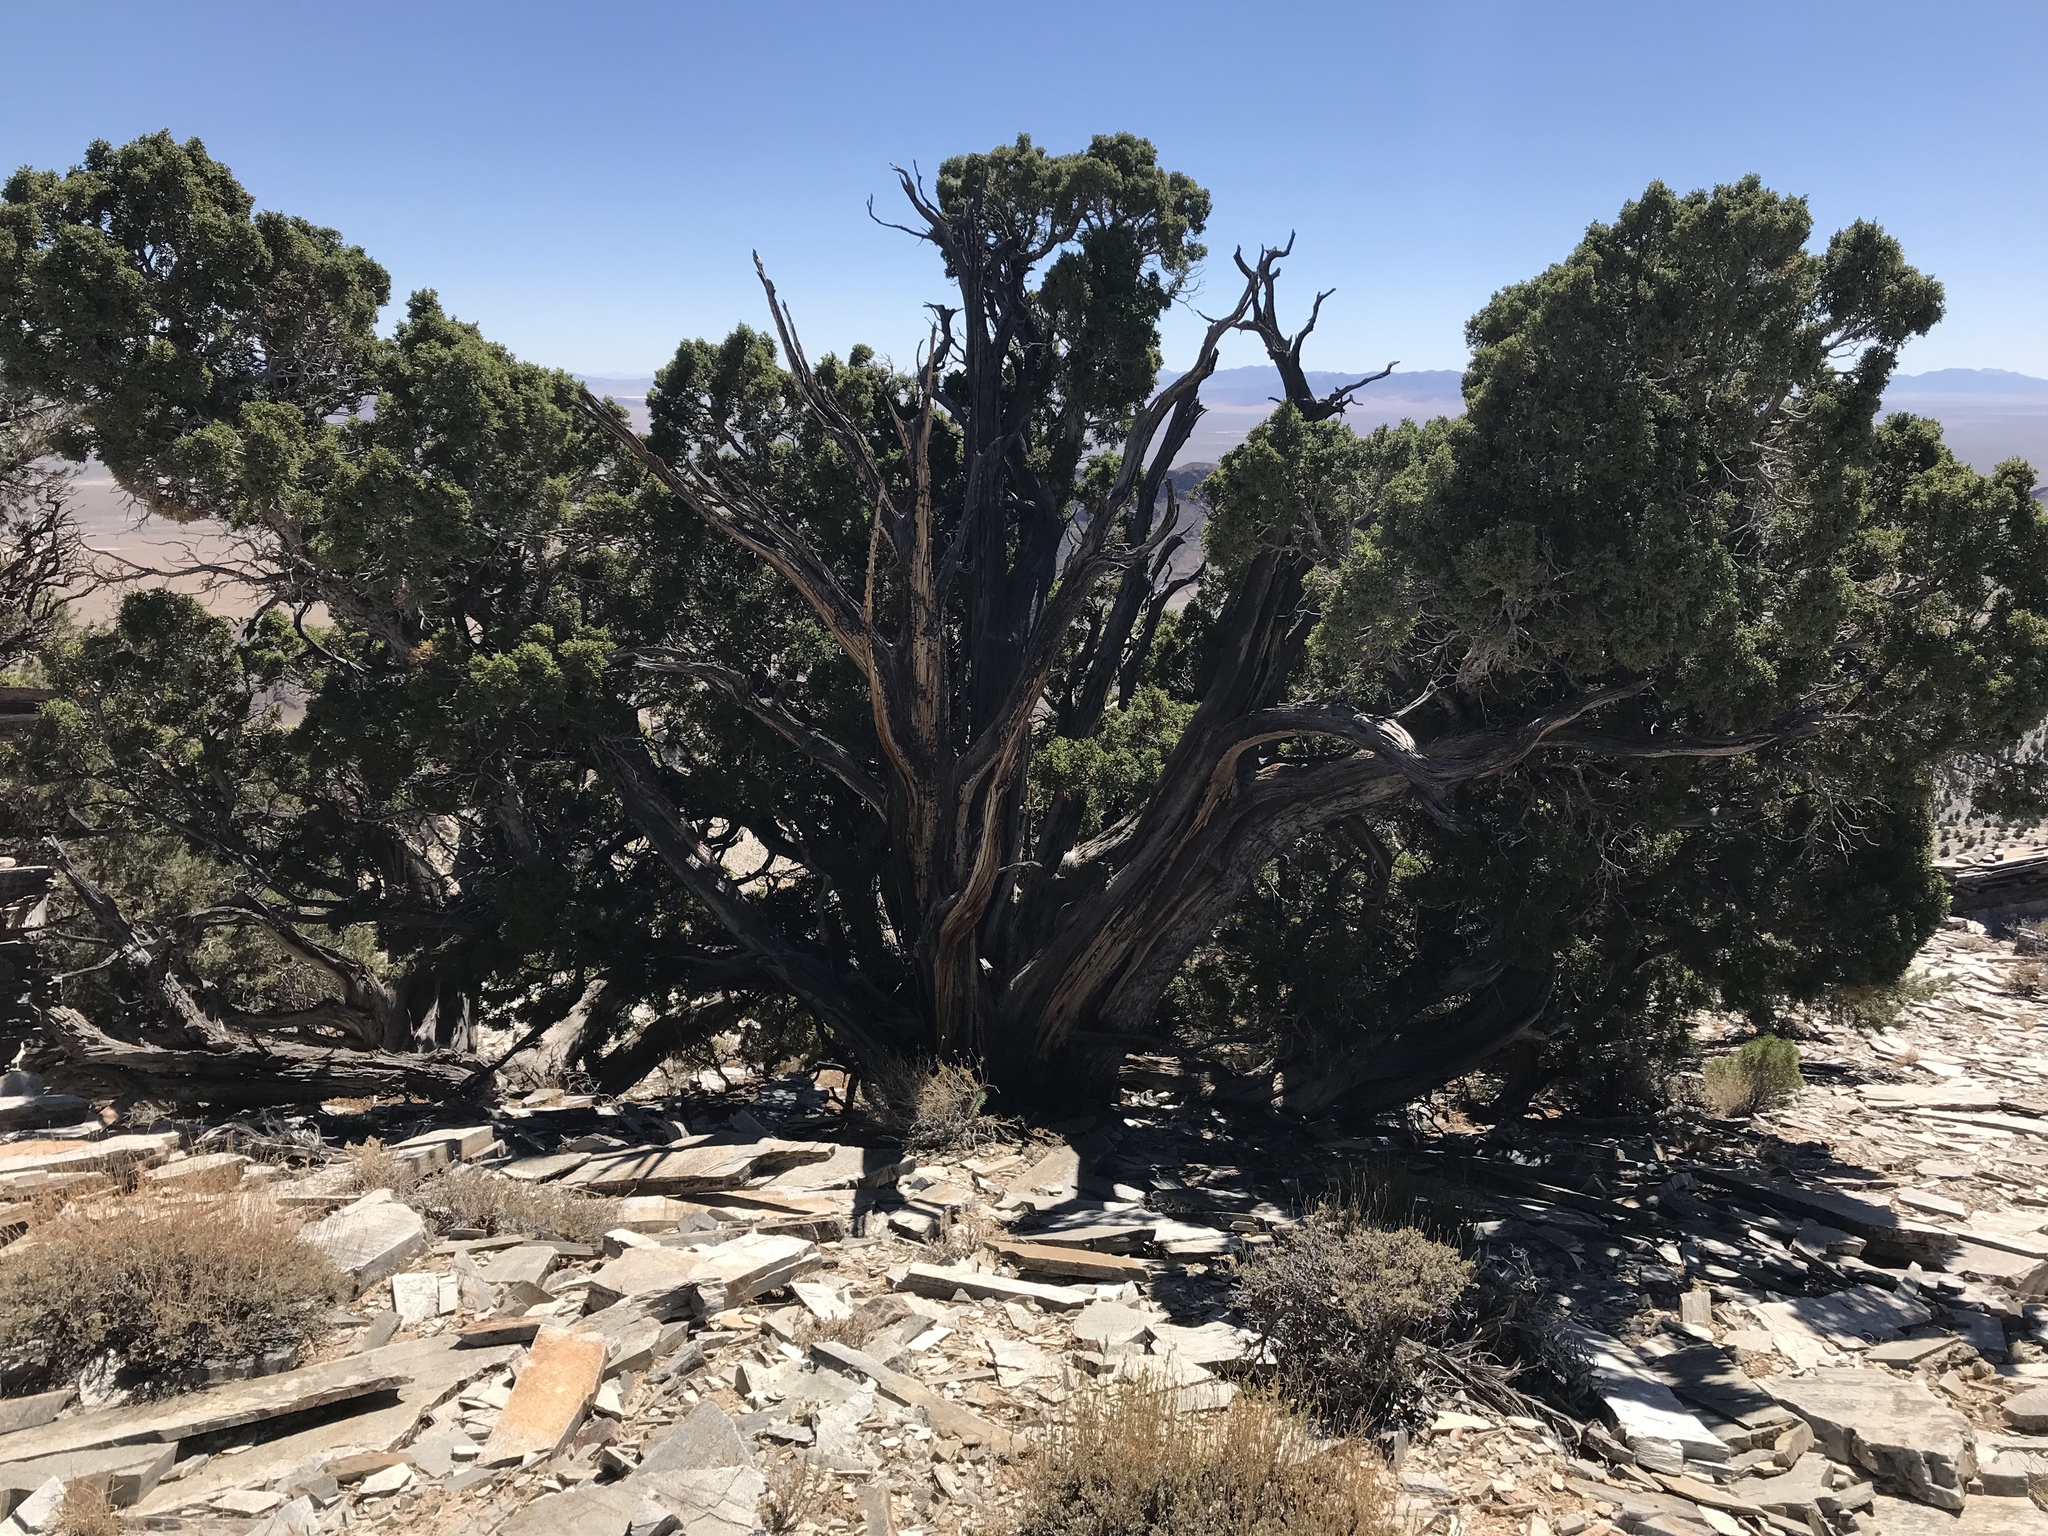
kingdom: Plantae
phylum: Tracheophyta
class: Pinopsida
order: Pinales
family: Cupressaceae
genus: Juniperus
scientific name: Juniperus osteosperma
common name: Utah juniper
